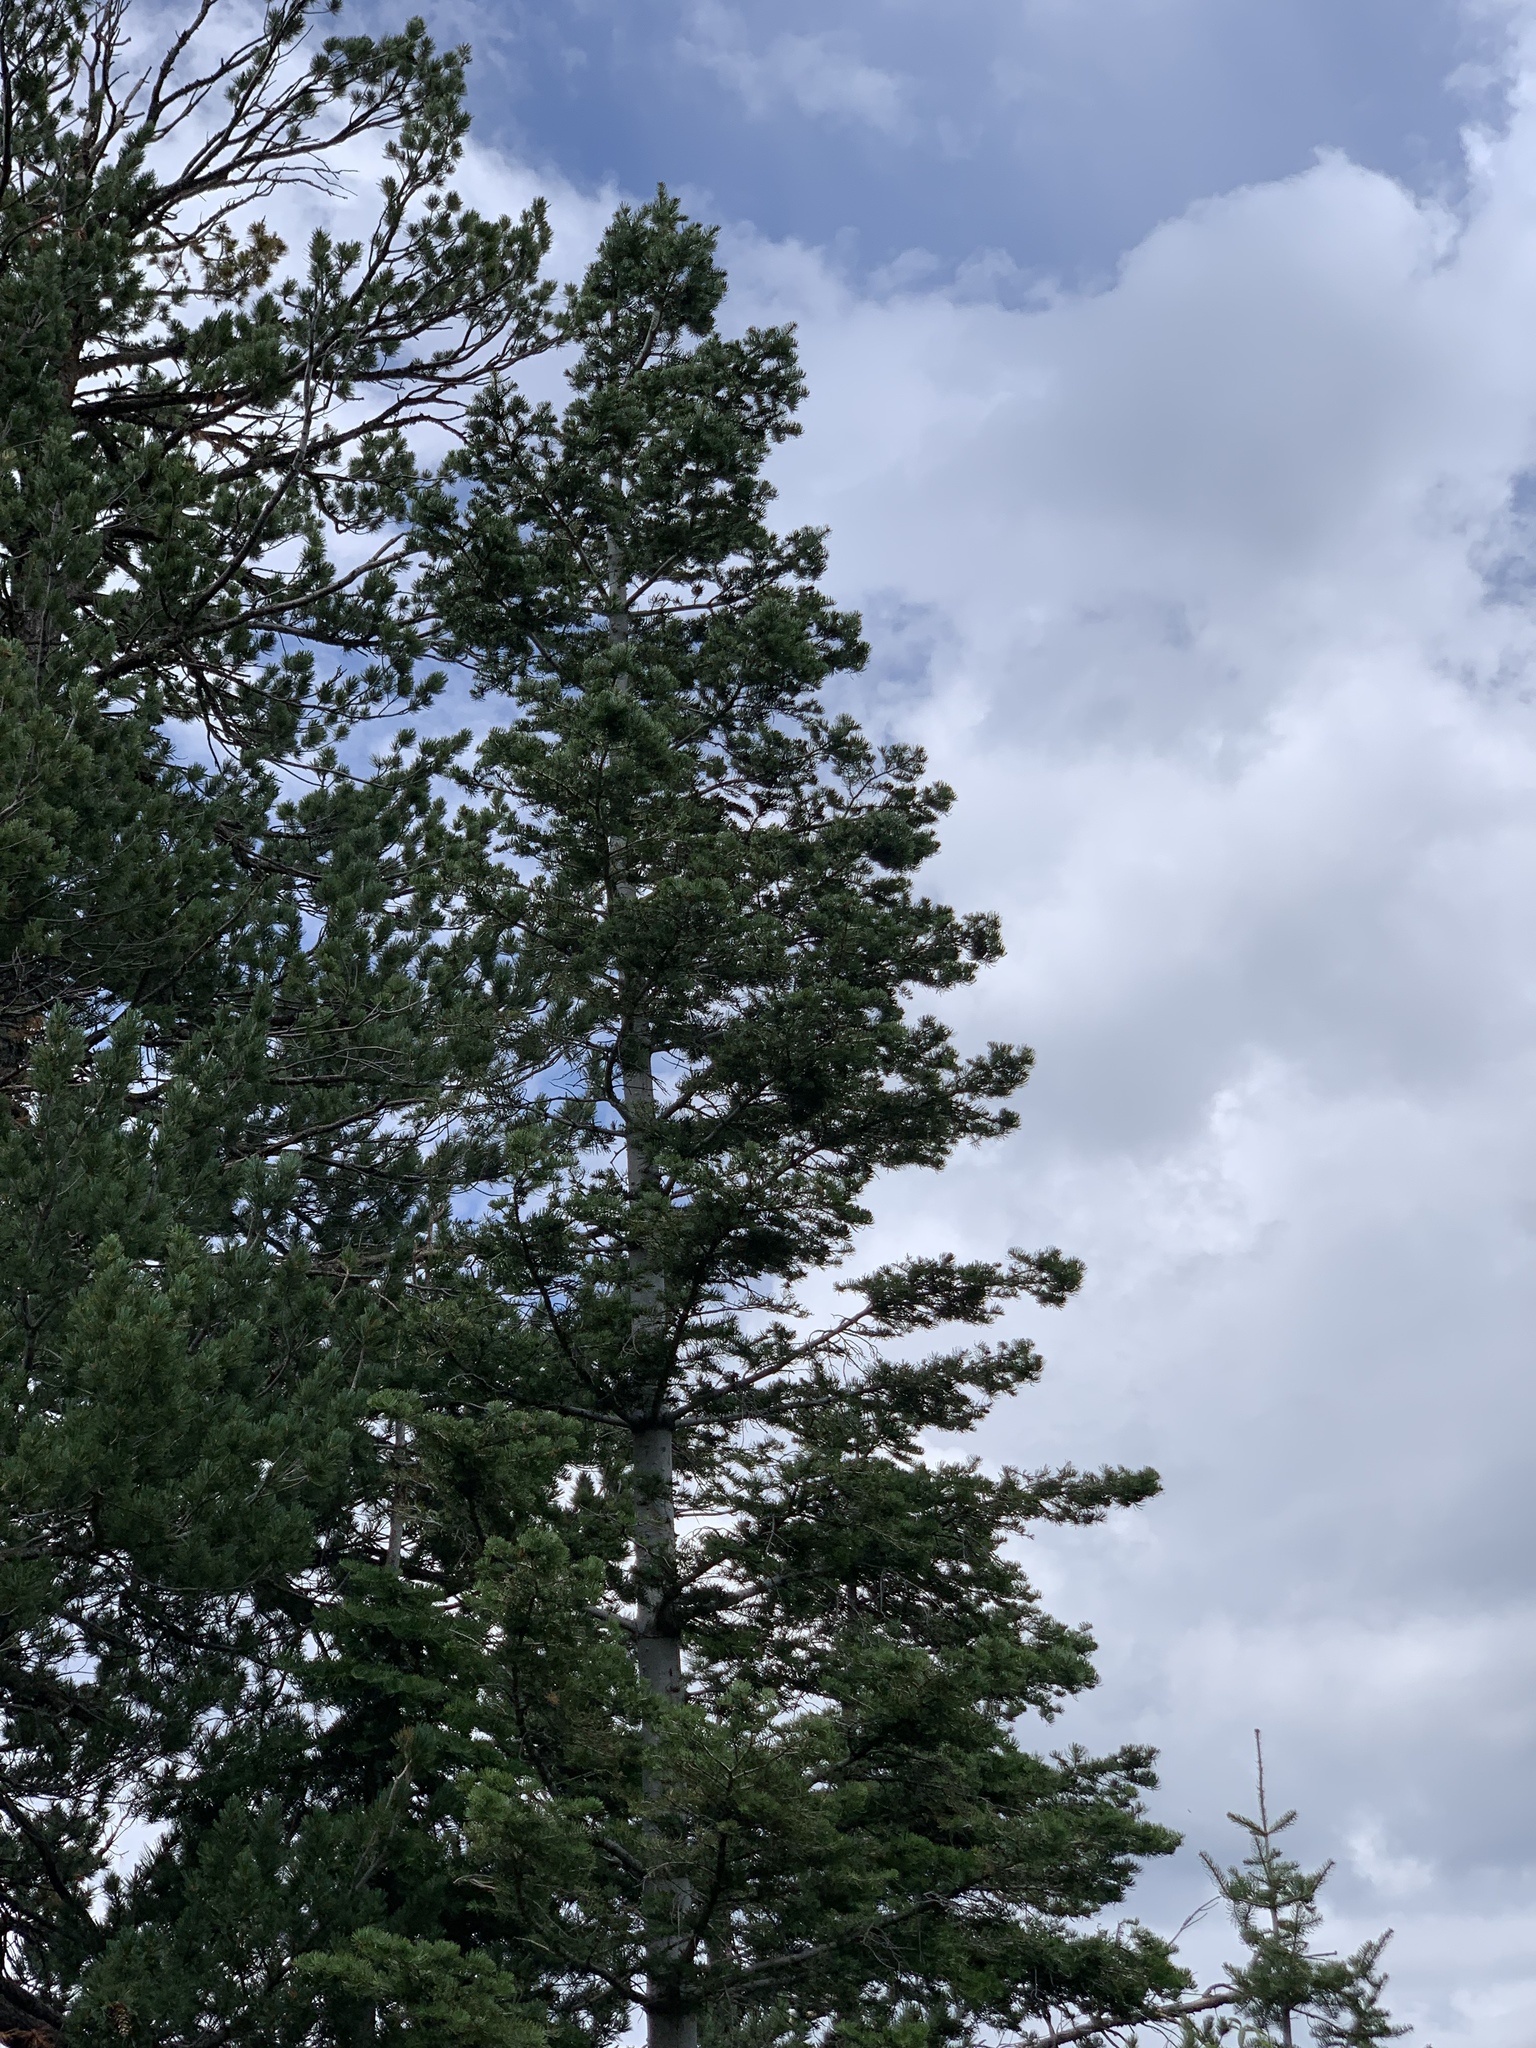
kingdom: Plantae
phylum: Tracheophyta
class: Pinopsida
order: Pinales
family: Pinaceae
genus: Abies
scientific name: Abies concolor
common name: Colorado fir
